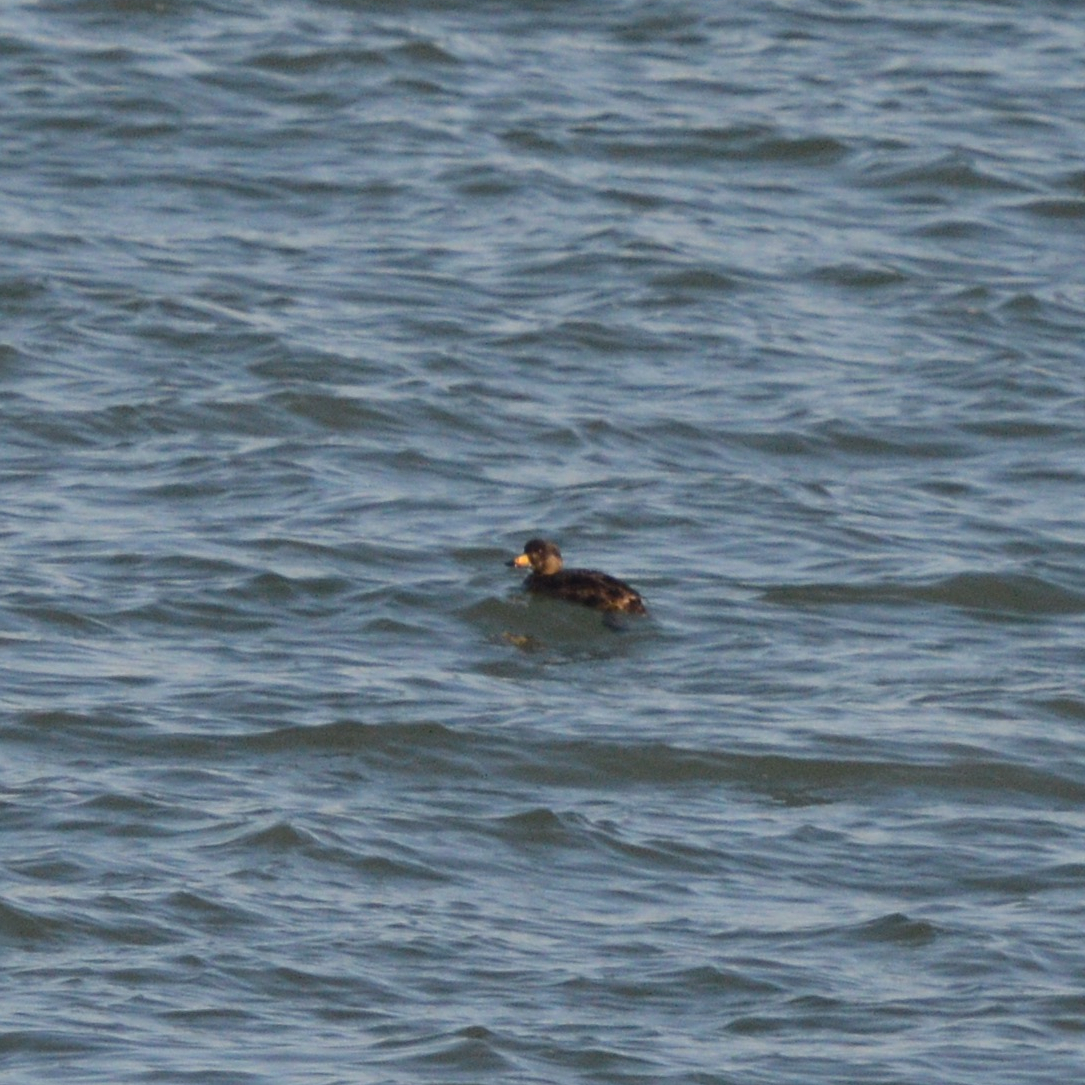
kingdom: Animalia
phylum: Chordata
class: Aves
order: Anseriformes
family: Anatidae
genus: Melanitta
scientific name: Melanitta americana
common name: Black scoter
